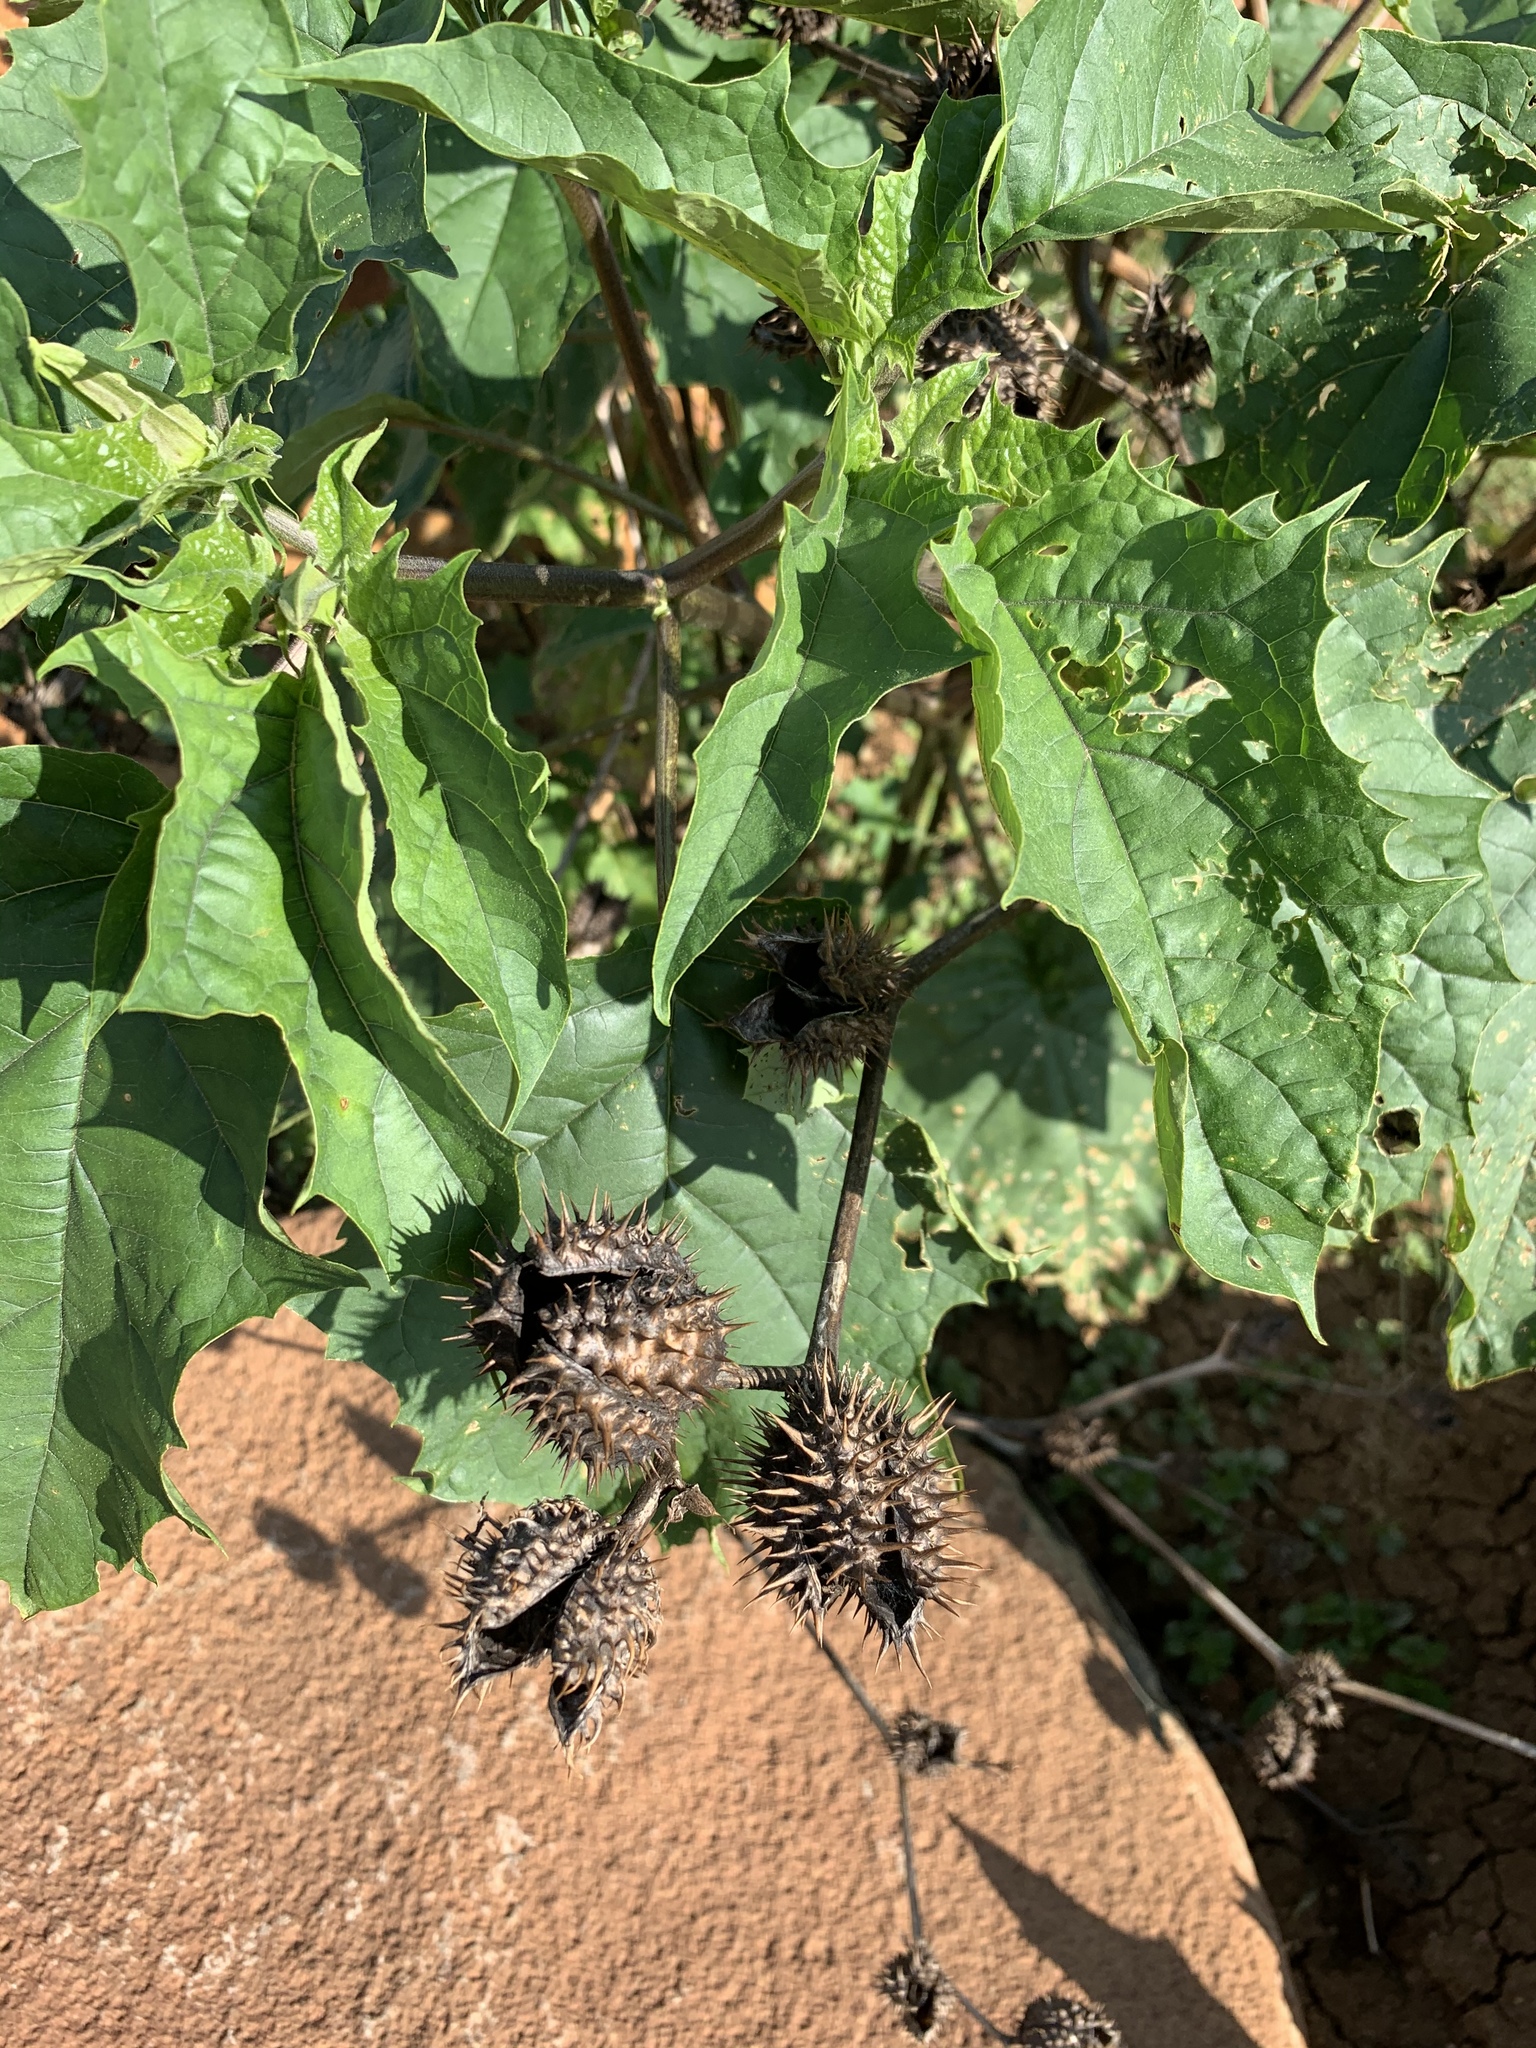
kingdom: Plantae
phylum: Tracheophyta
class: Magnoliopsida
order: Solanales
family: Solanaceae
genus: Datura
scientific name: Datura stramonium
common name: Thorn-apple
